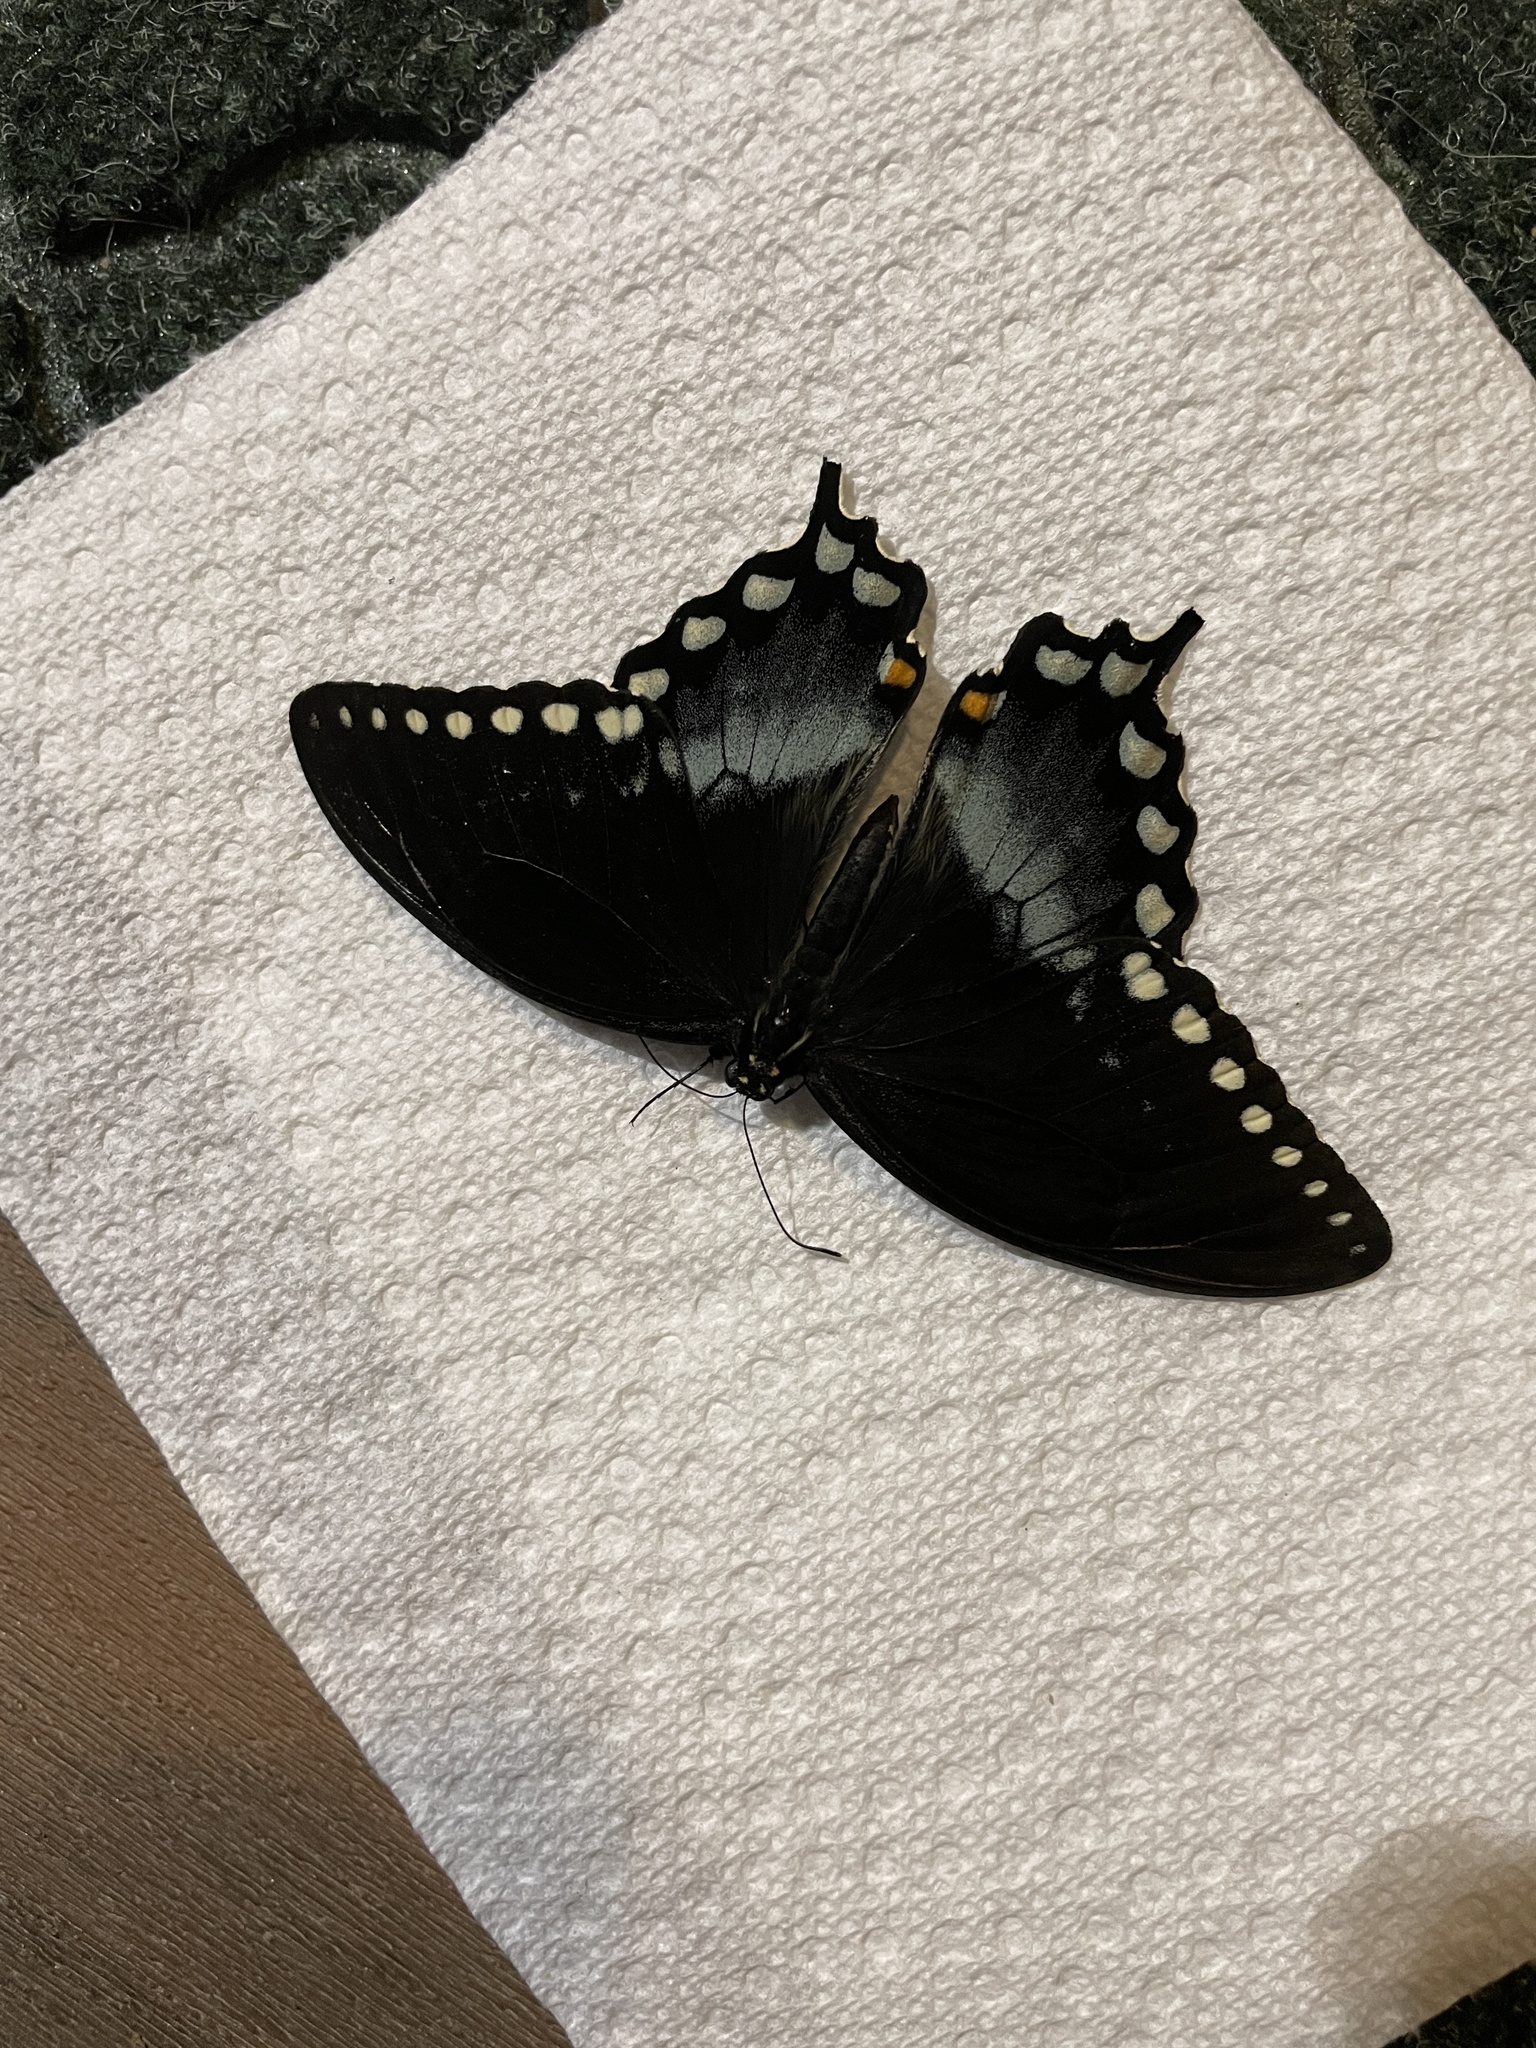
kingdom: Animalia
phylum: Arthropoda
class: Insecta
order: Lepidoptera
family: Papilionidae
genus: Papilio
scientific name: Papilio troilus
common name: Spicebush swallowtail
